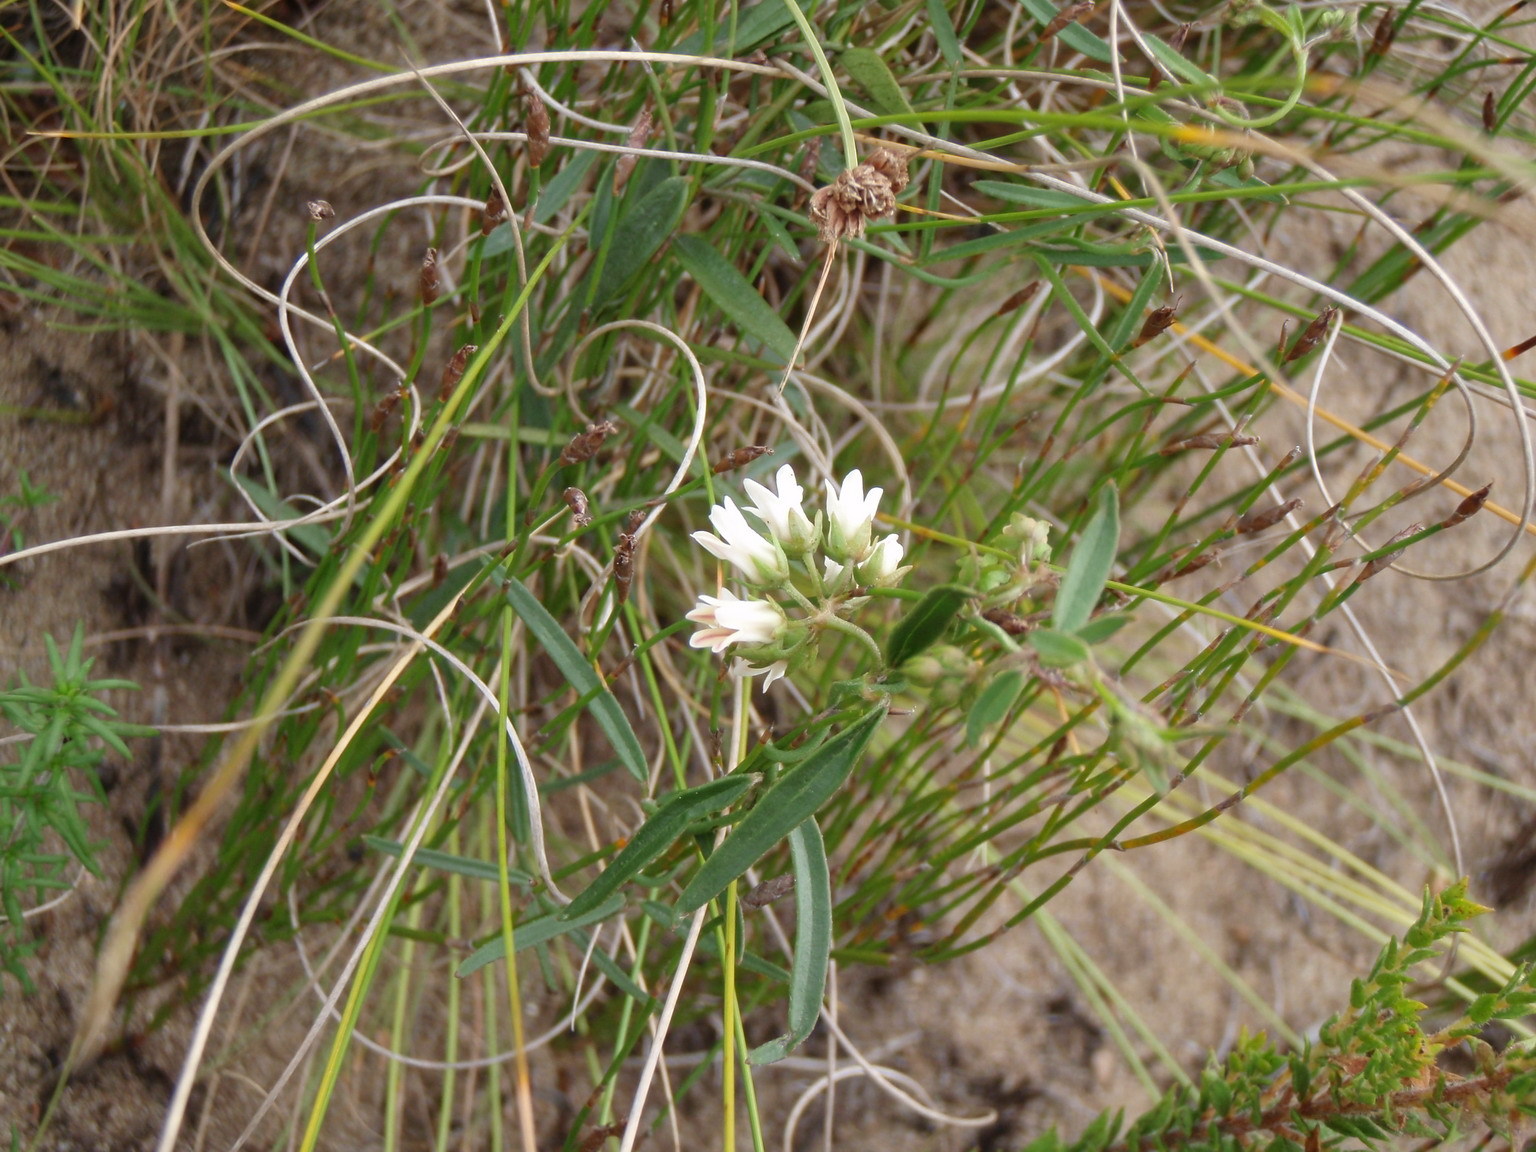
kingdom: Plantae
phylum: Tracheophyta
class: Magnoliopsida
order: Gentianales
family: Apocynaceae
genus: Astephanus
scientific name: Astephanus triflorus
